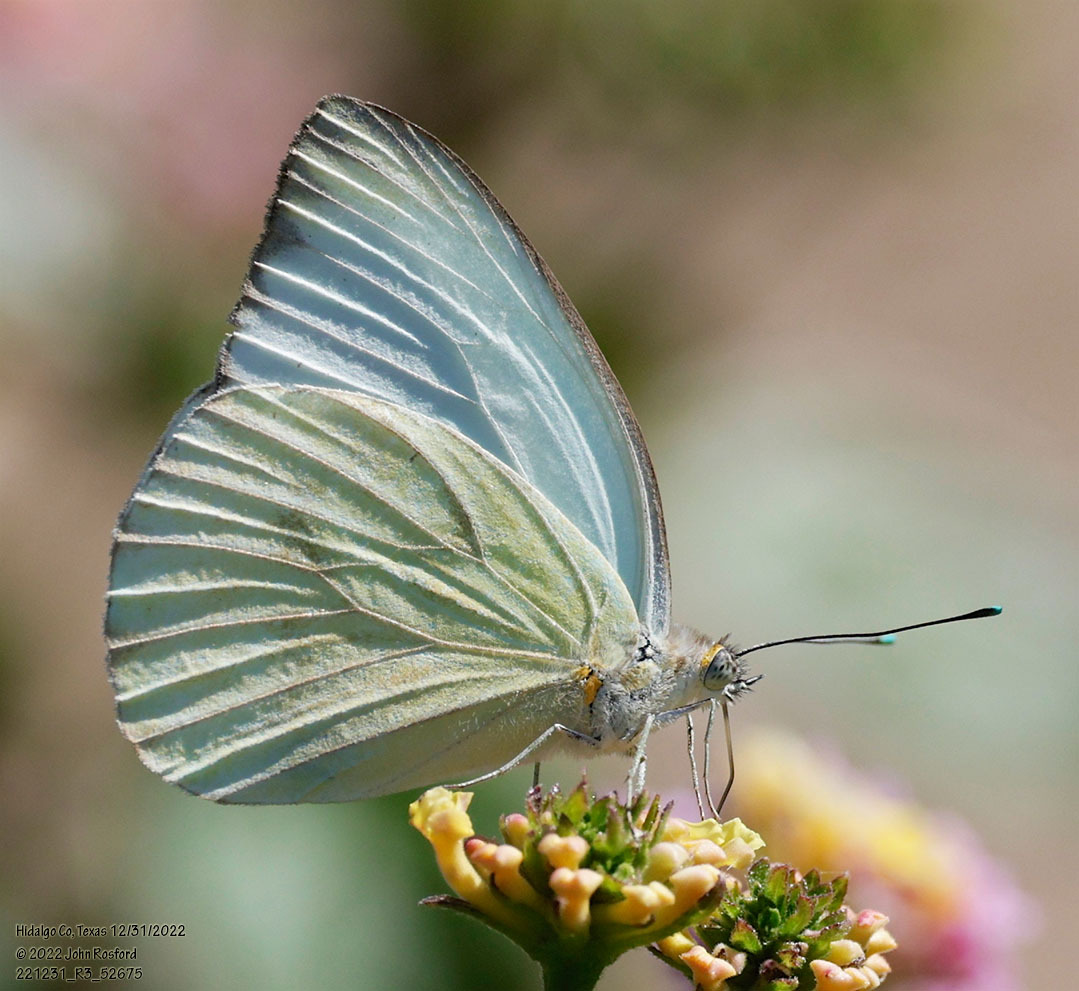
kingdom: Animalia
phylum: Arthropoda
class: Insecta
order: Lepidoptera
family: Pieridae
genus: Ascia
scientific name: Ascia monuste
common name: Great southern white
